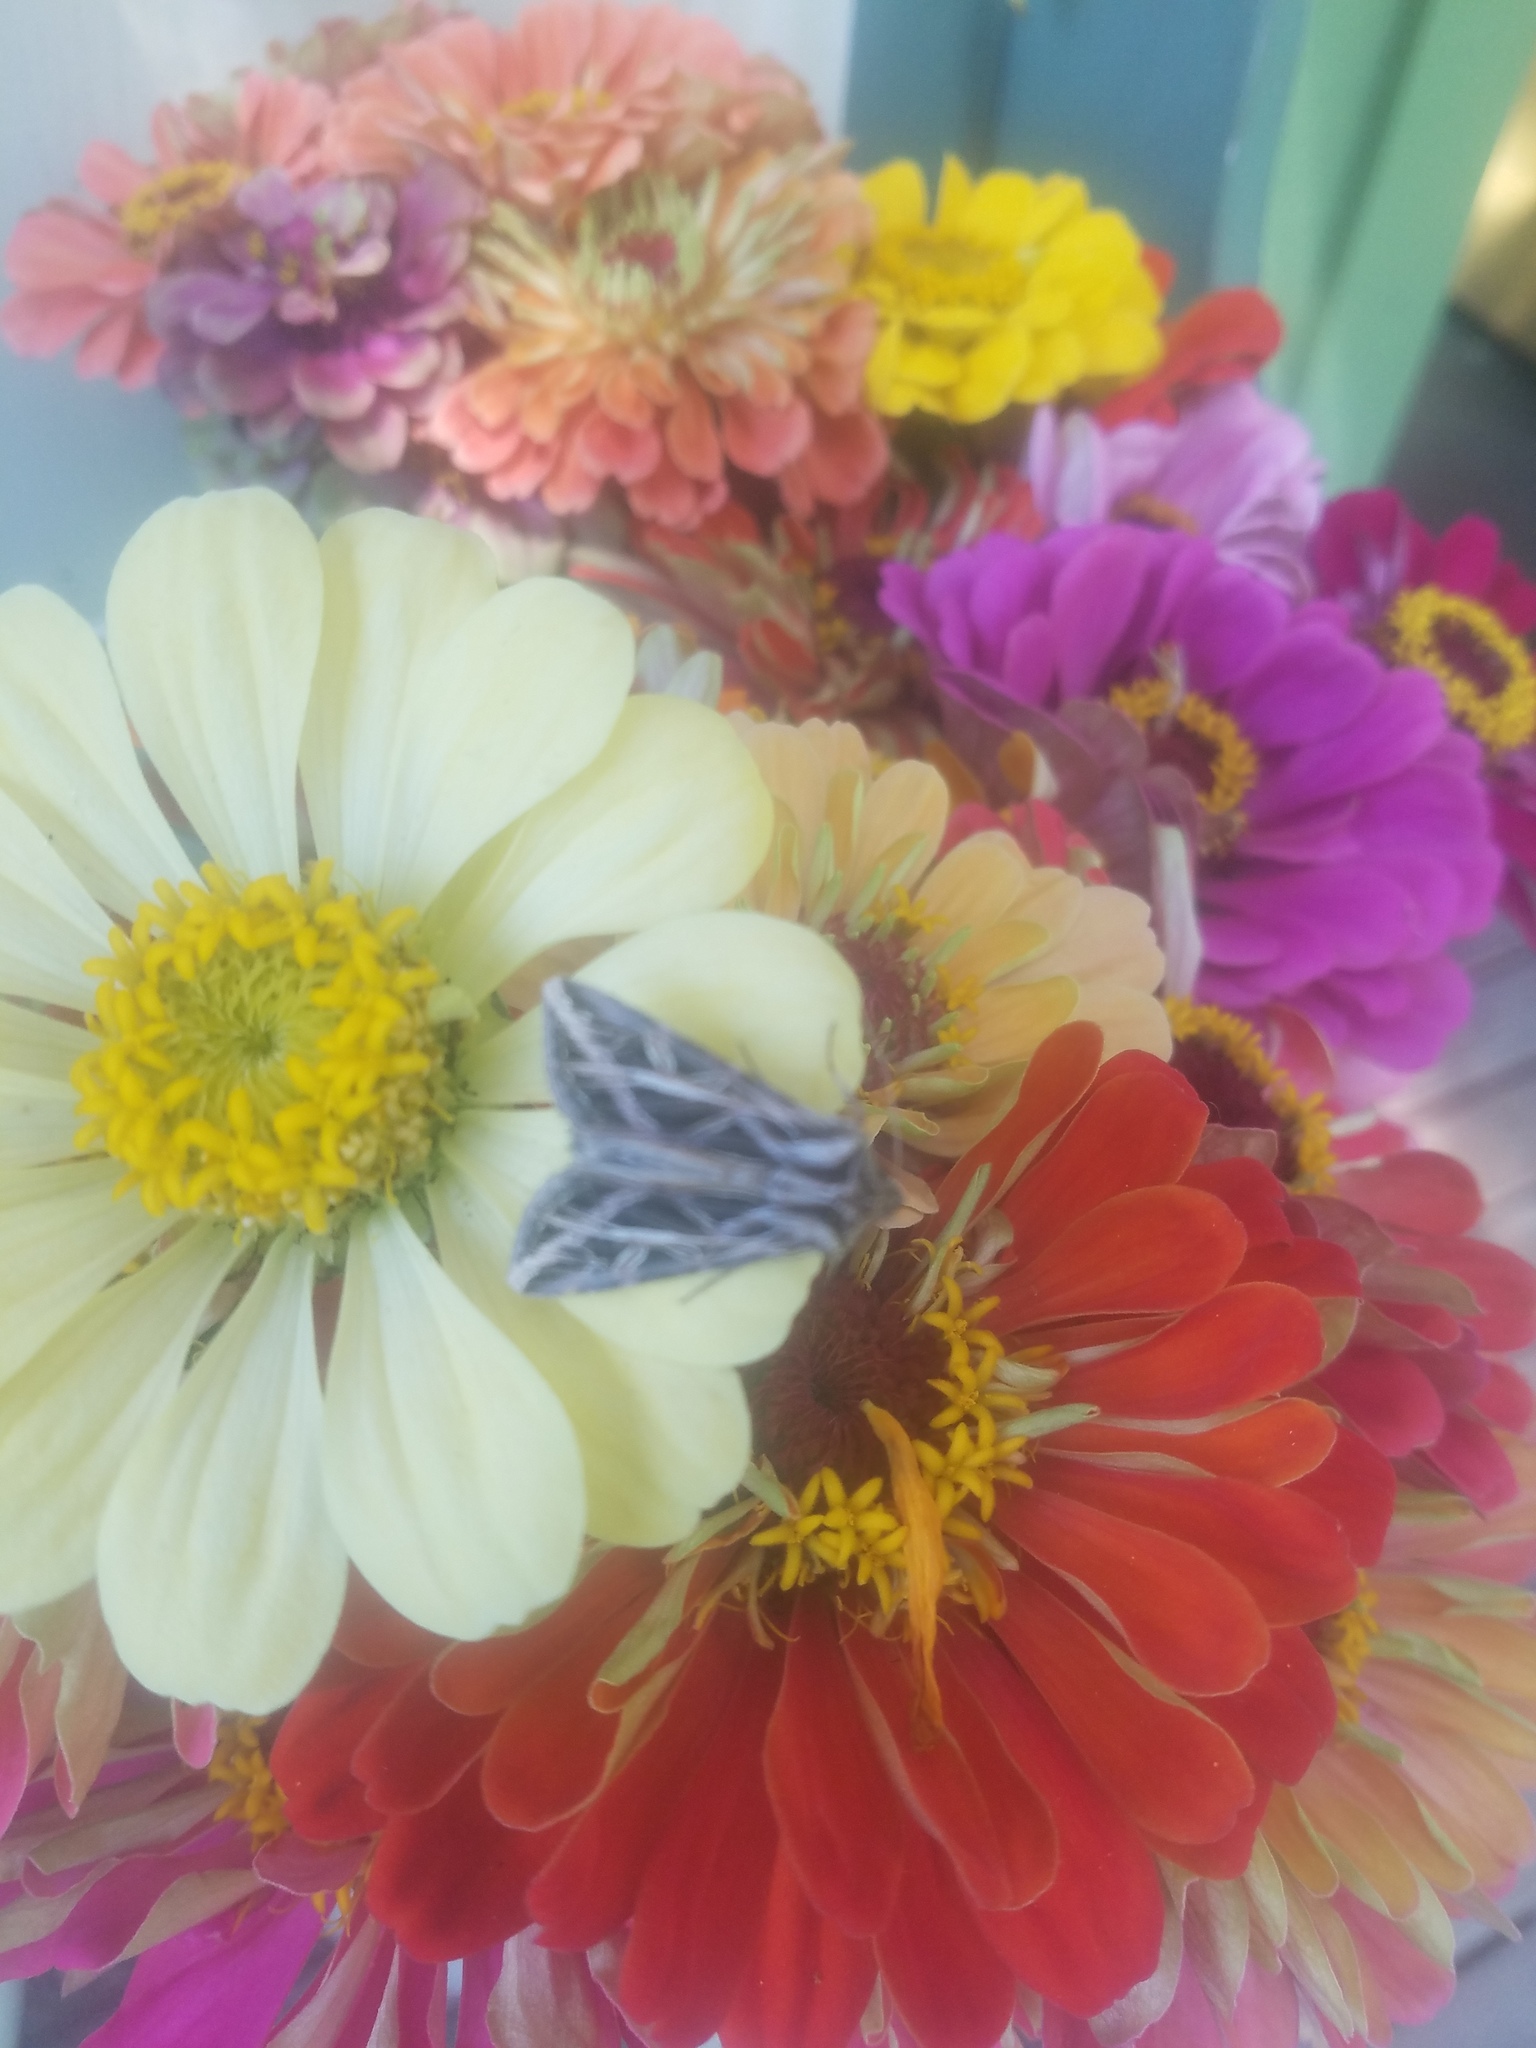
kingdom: Animalia
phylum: Arthropoda
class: Insecta
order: Lepidoptera
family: Noctuidae
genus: Dargida
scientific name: Dargida procinctus
